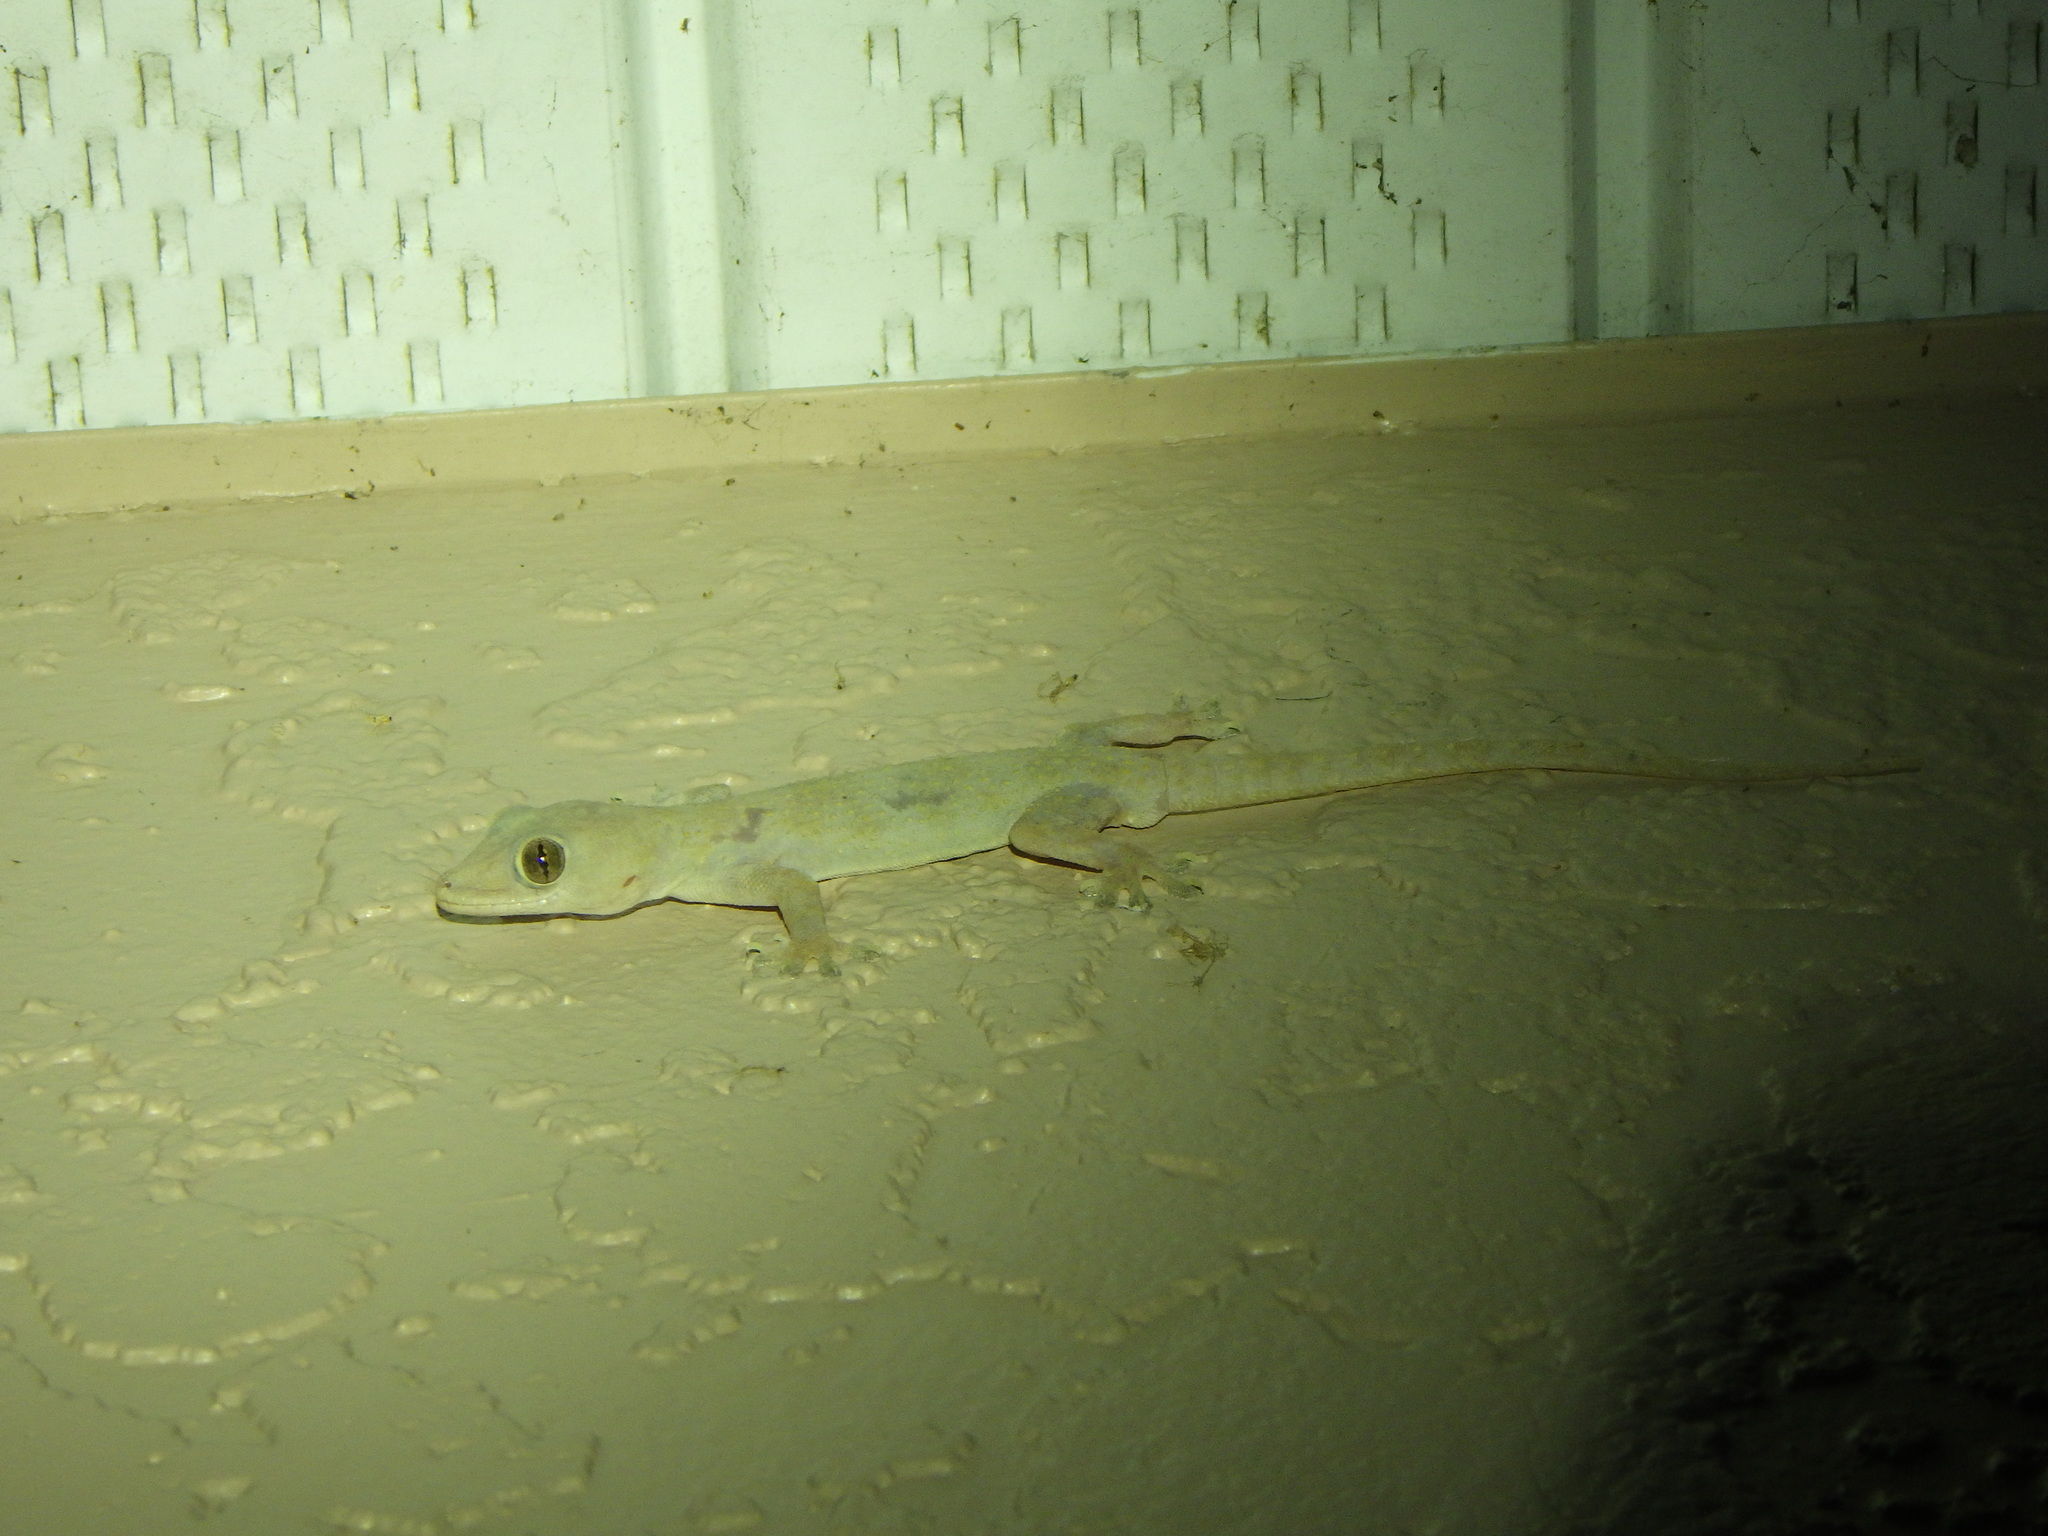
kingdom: Animalia
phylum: Chordata
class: Squamata
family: Gekkonidae
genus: Hemidactylus
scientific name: Hemidactylus mabouia
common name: House gecko
